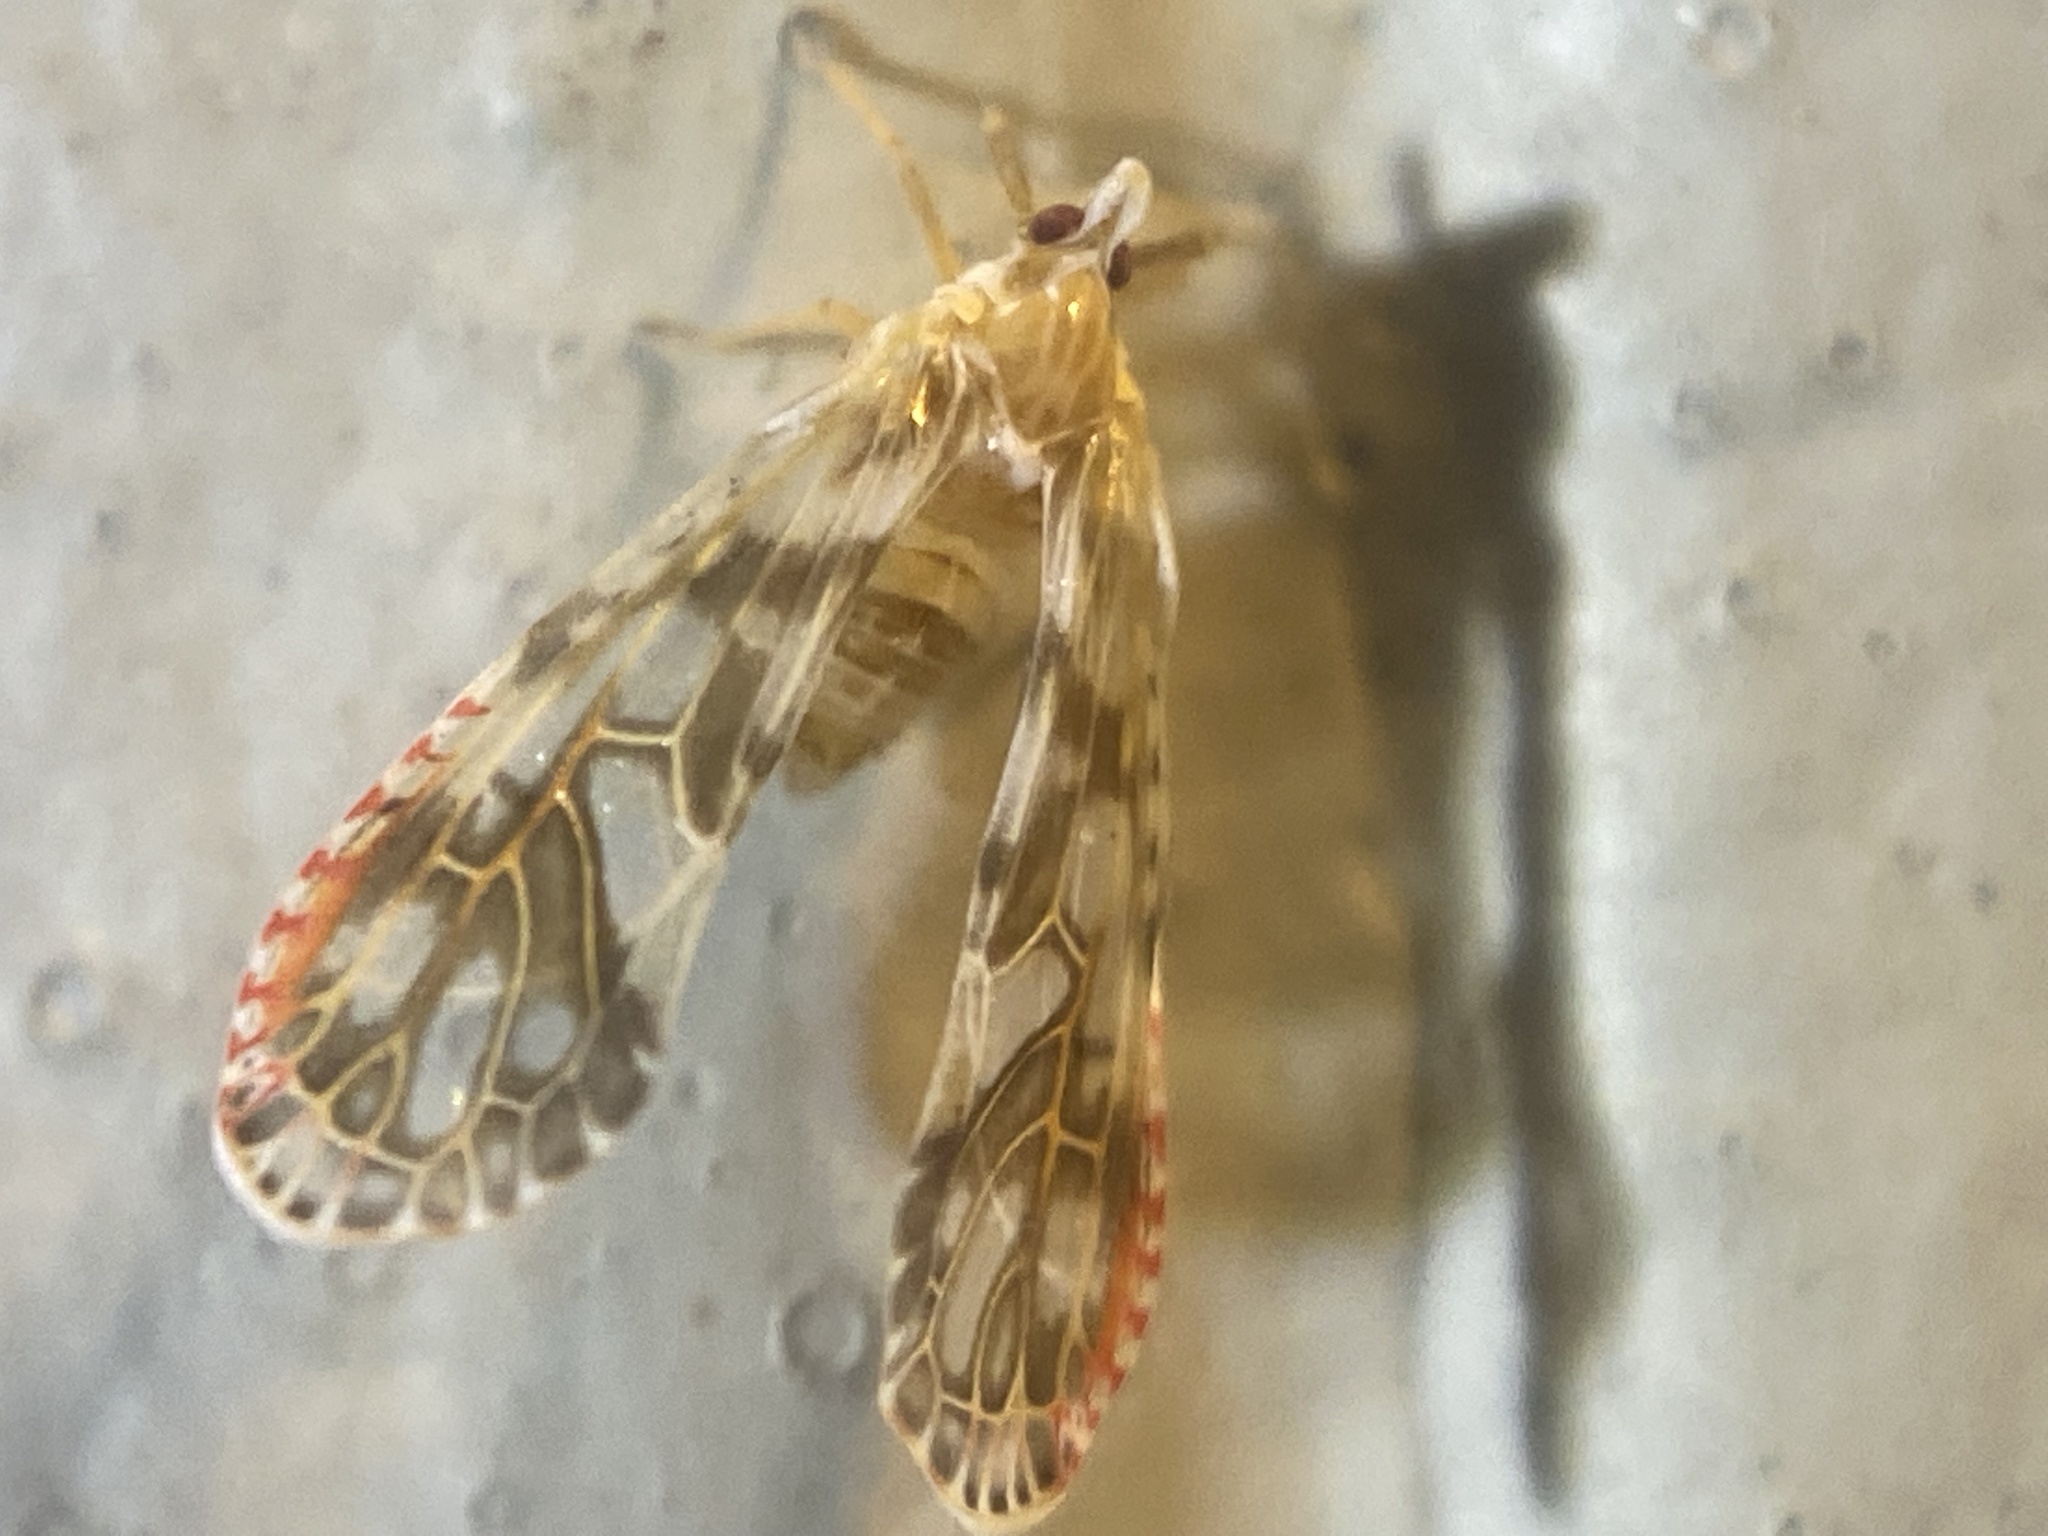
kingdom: Animalia
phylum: Arthropoda
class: Insecta
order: Hemiptera
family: Derbidae
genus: Anotia
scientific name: Anotia kirkaldyi
